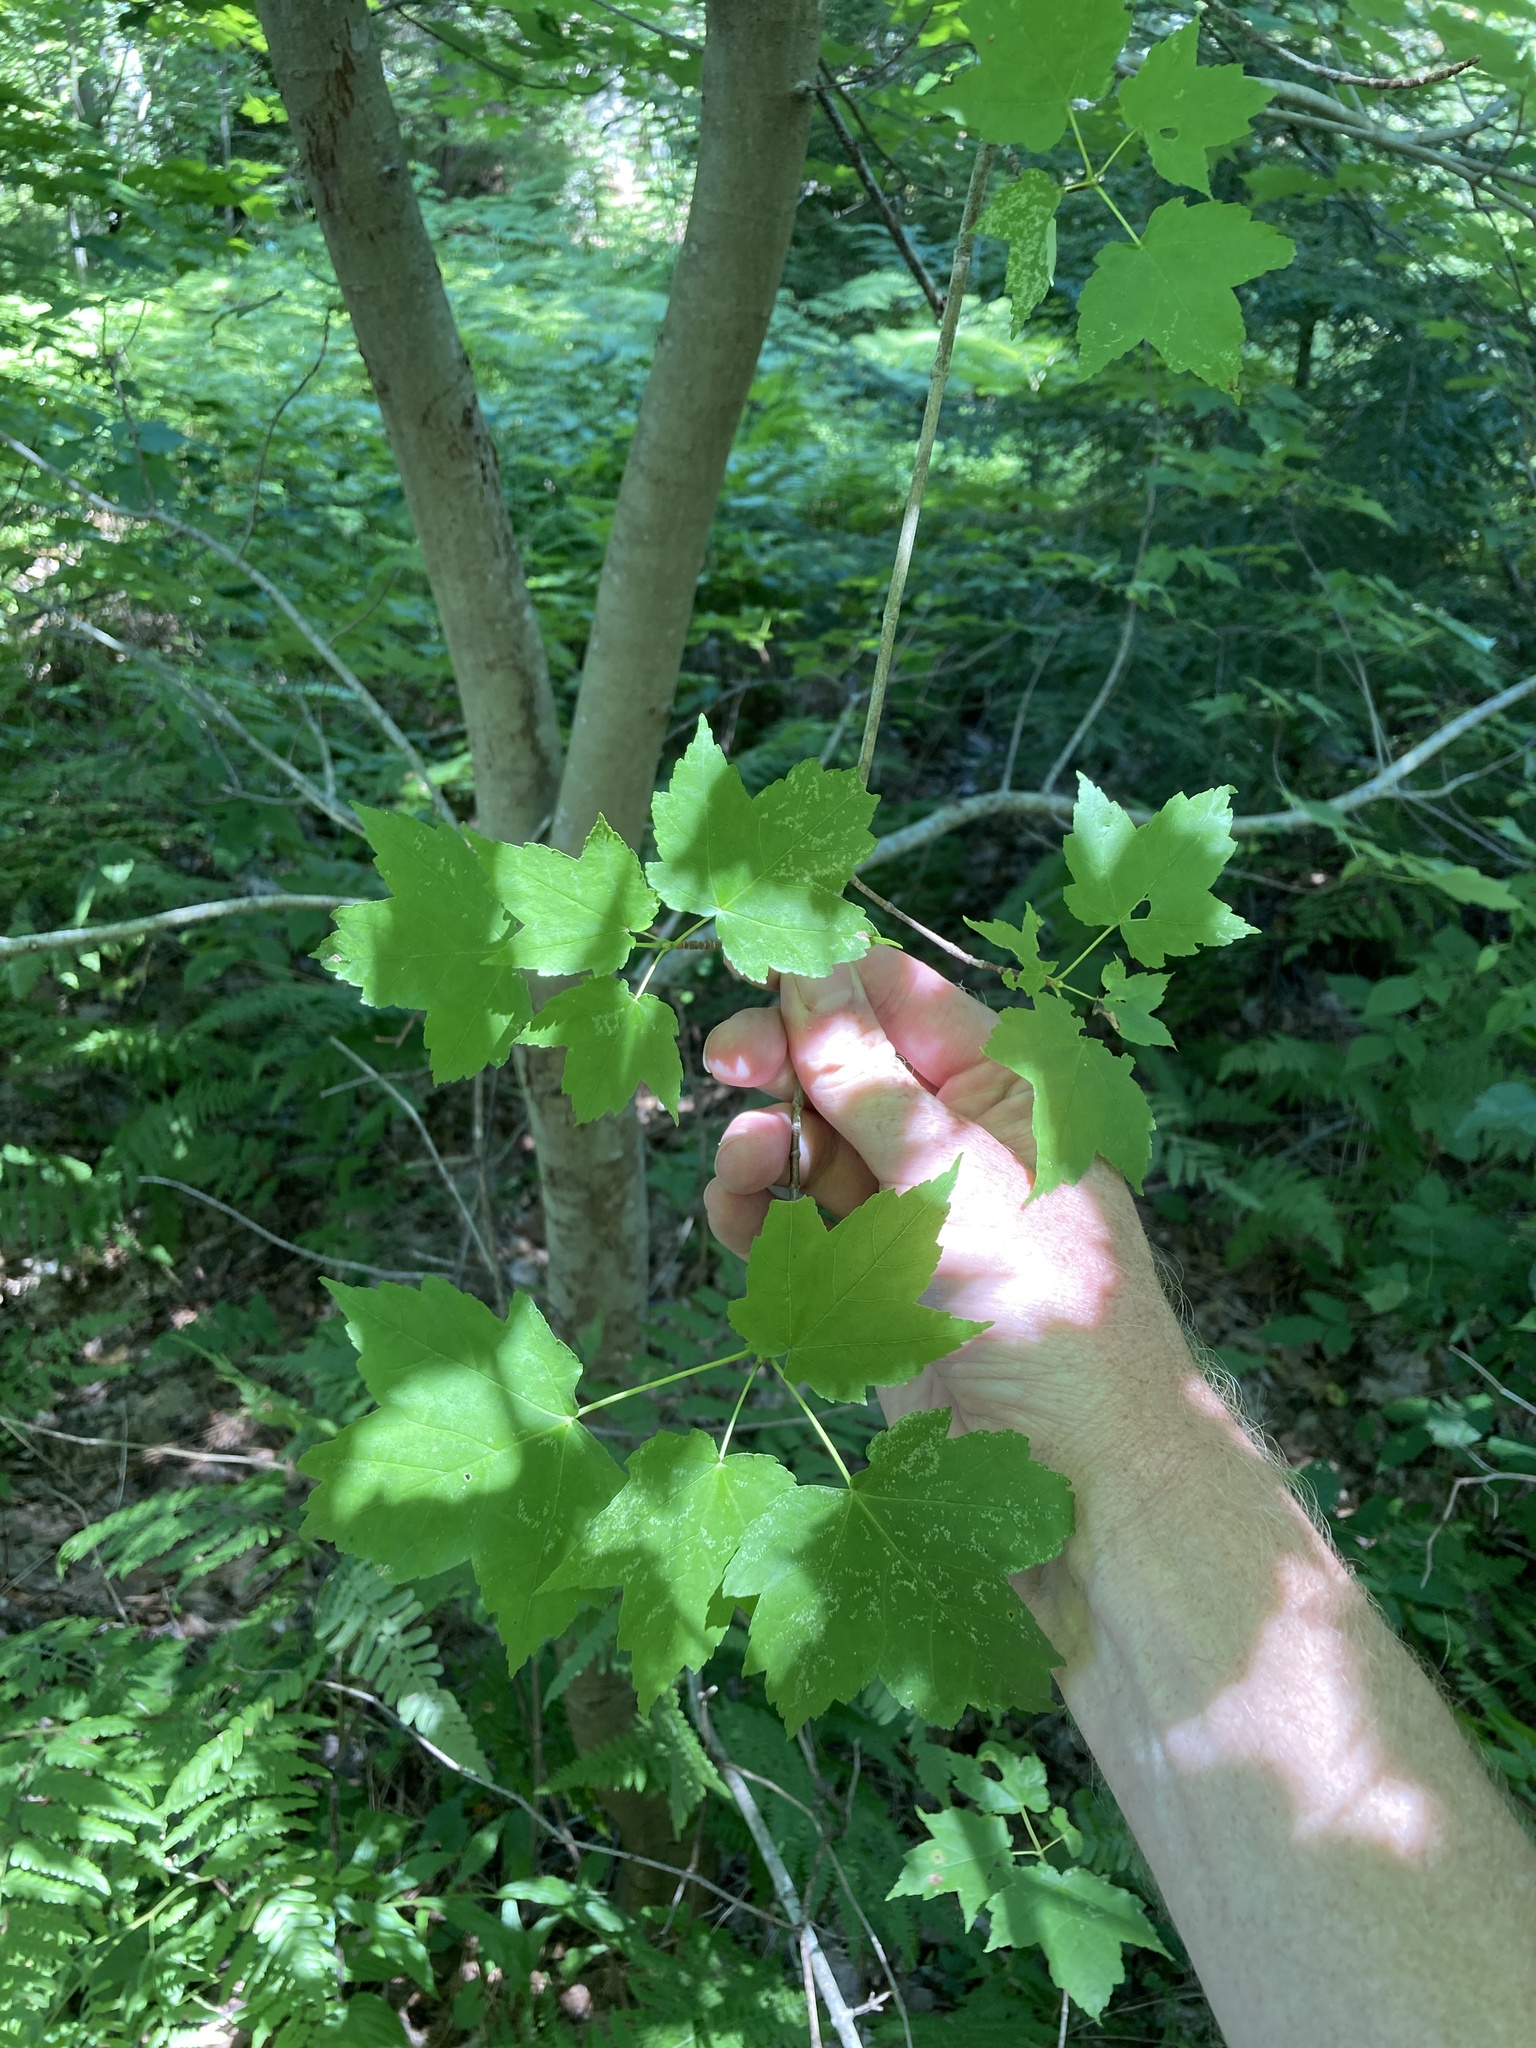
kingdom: Plantae
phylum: Tracheophyta
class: Magnoliopsida
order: Sapindales
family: Sapindaceae
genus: Acer
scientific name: Acer rubrum
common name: Red maple
